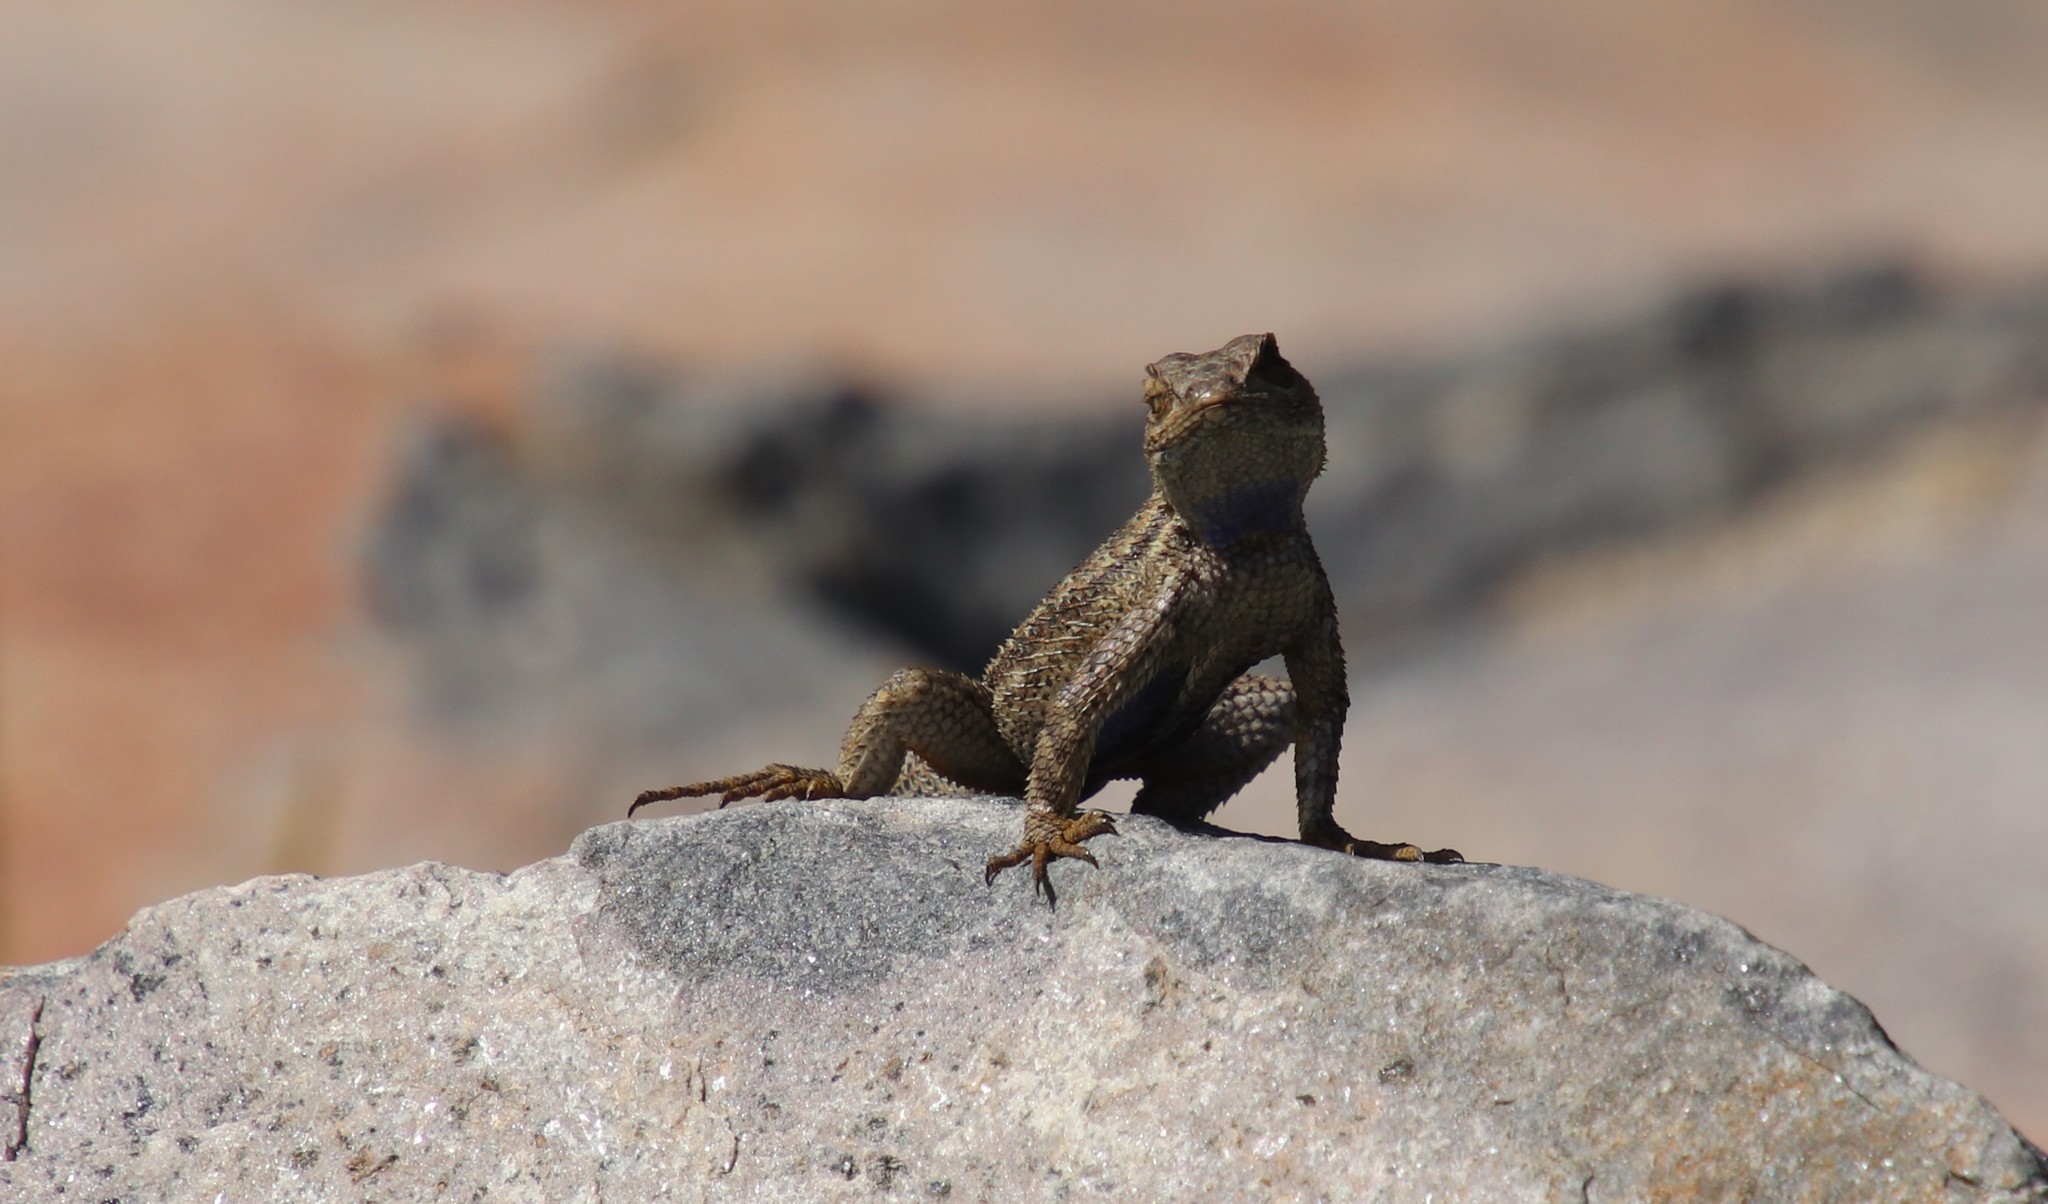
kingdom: Animalia
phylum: Chordata
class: Squamata
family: Phrynosomatidae
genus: Sceloporus
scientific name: Sceloporus occidentalis
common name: Western fence lizard
